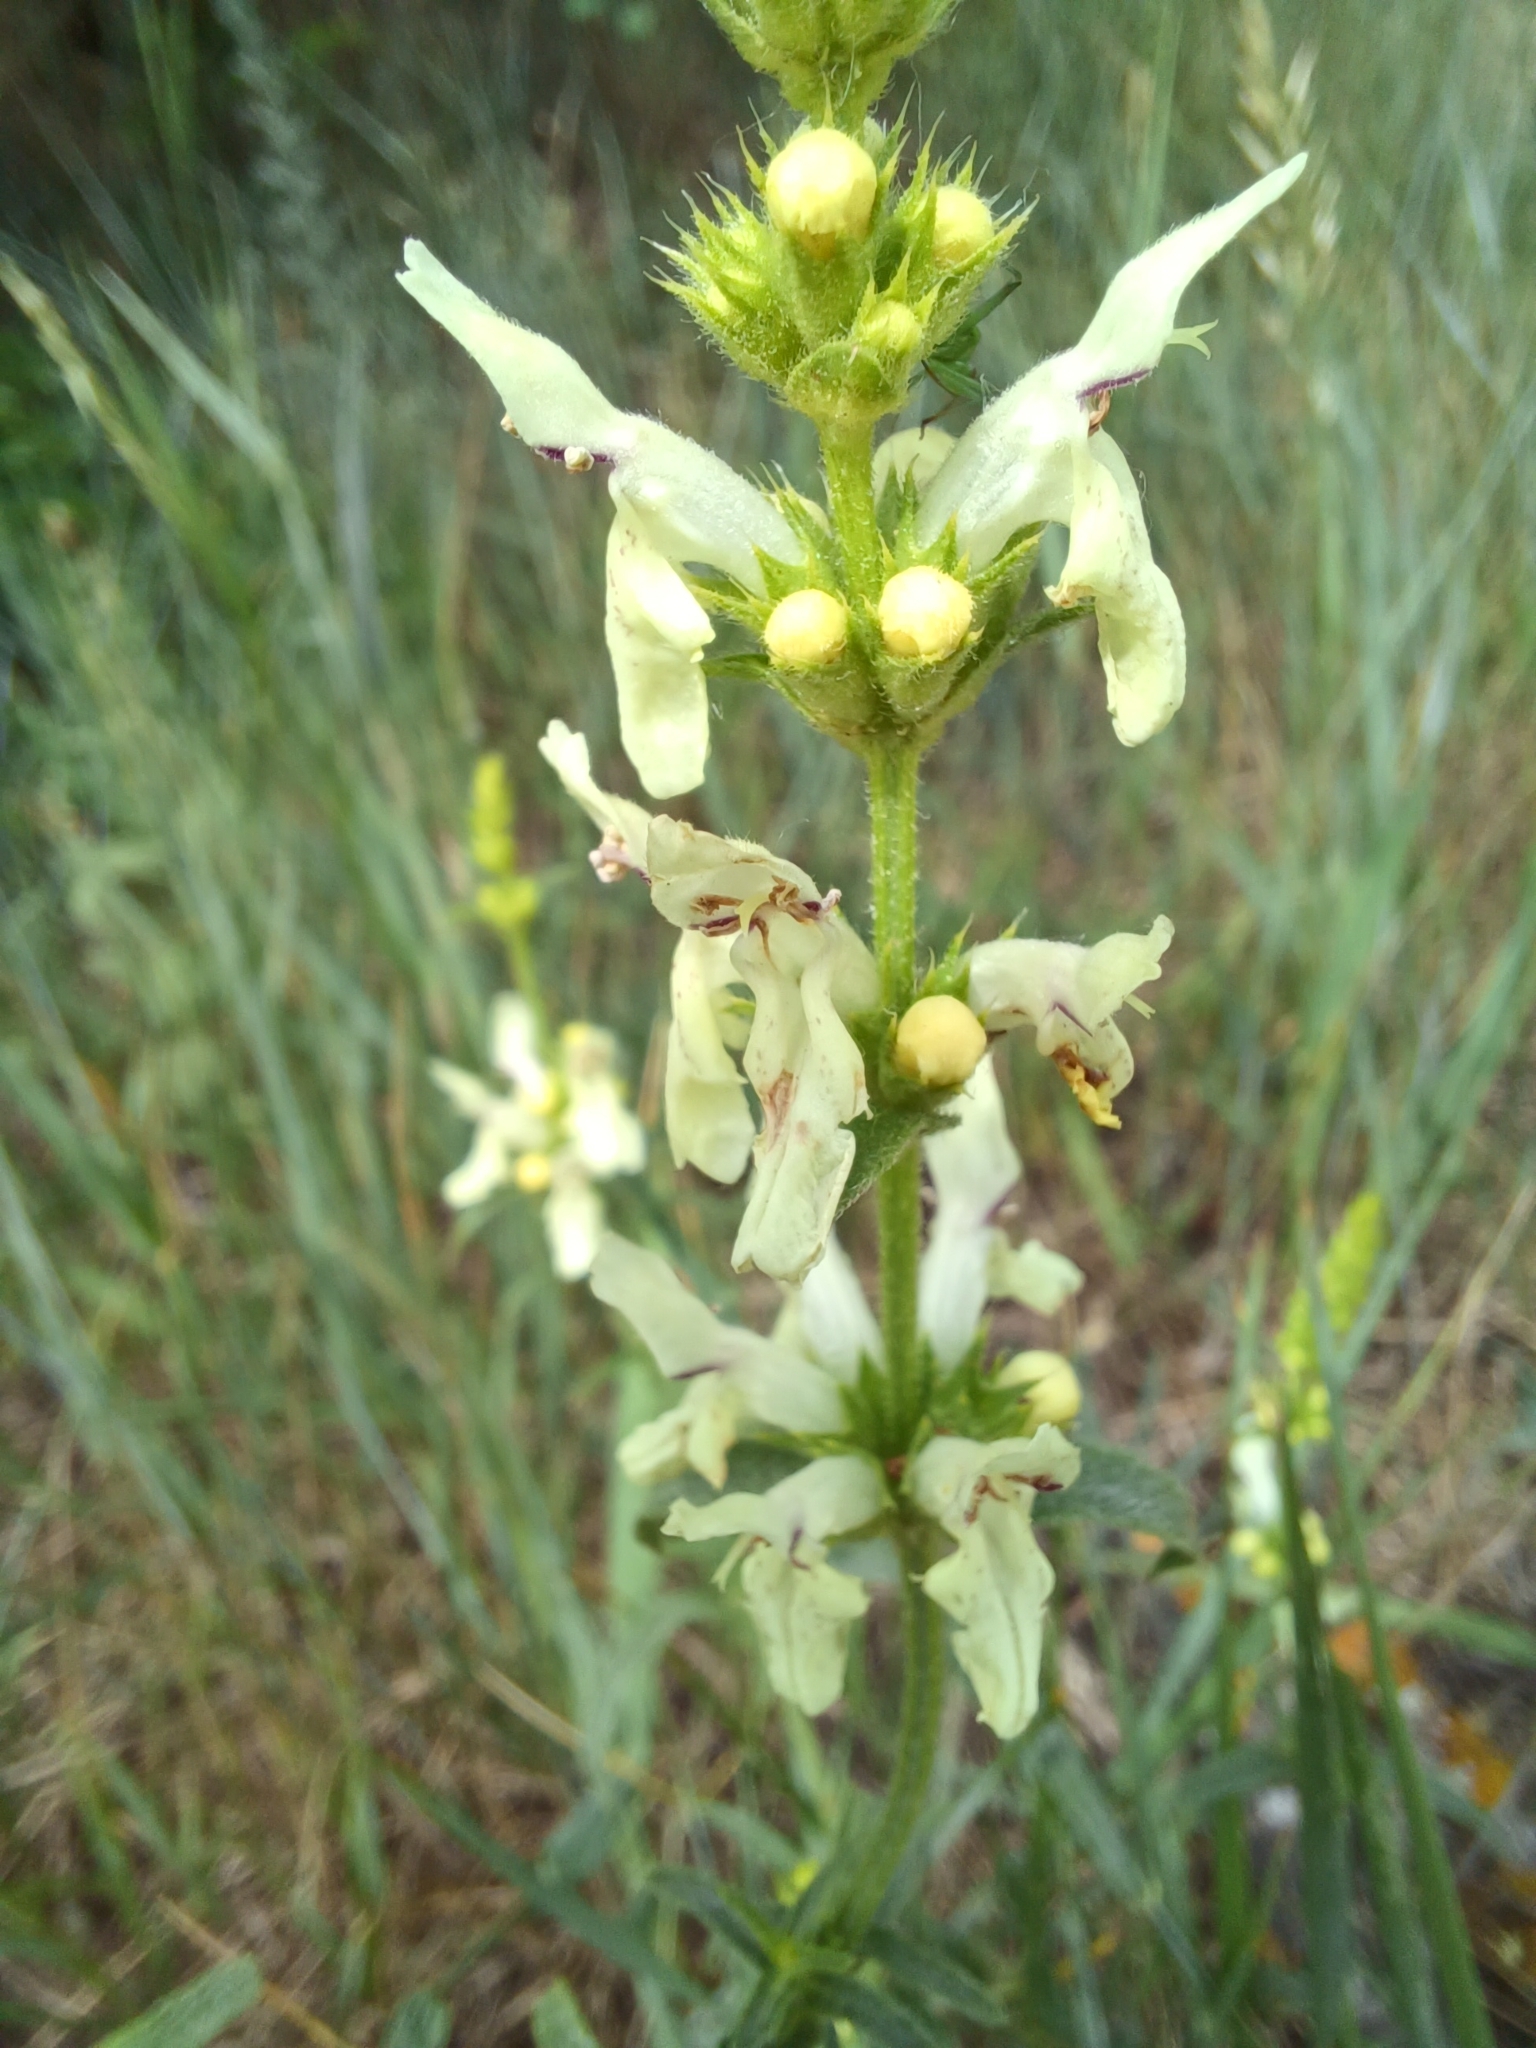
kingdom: Plantae
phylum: Tracheophyta
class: Magnoliopsida
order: Lamiales
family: Lamiaceae
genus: Stachys
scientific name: Stachys recta
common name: Perennial yellow-woundwort
